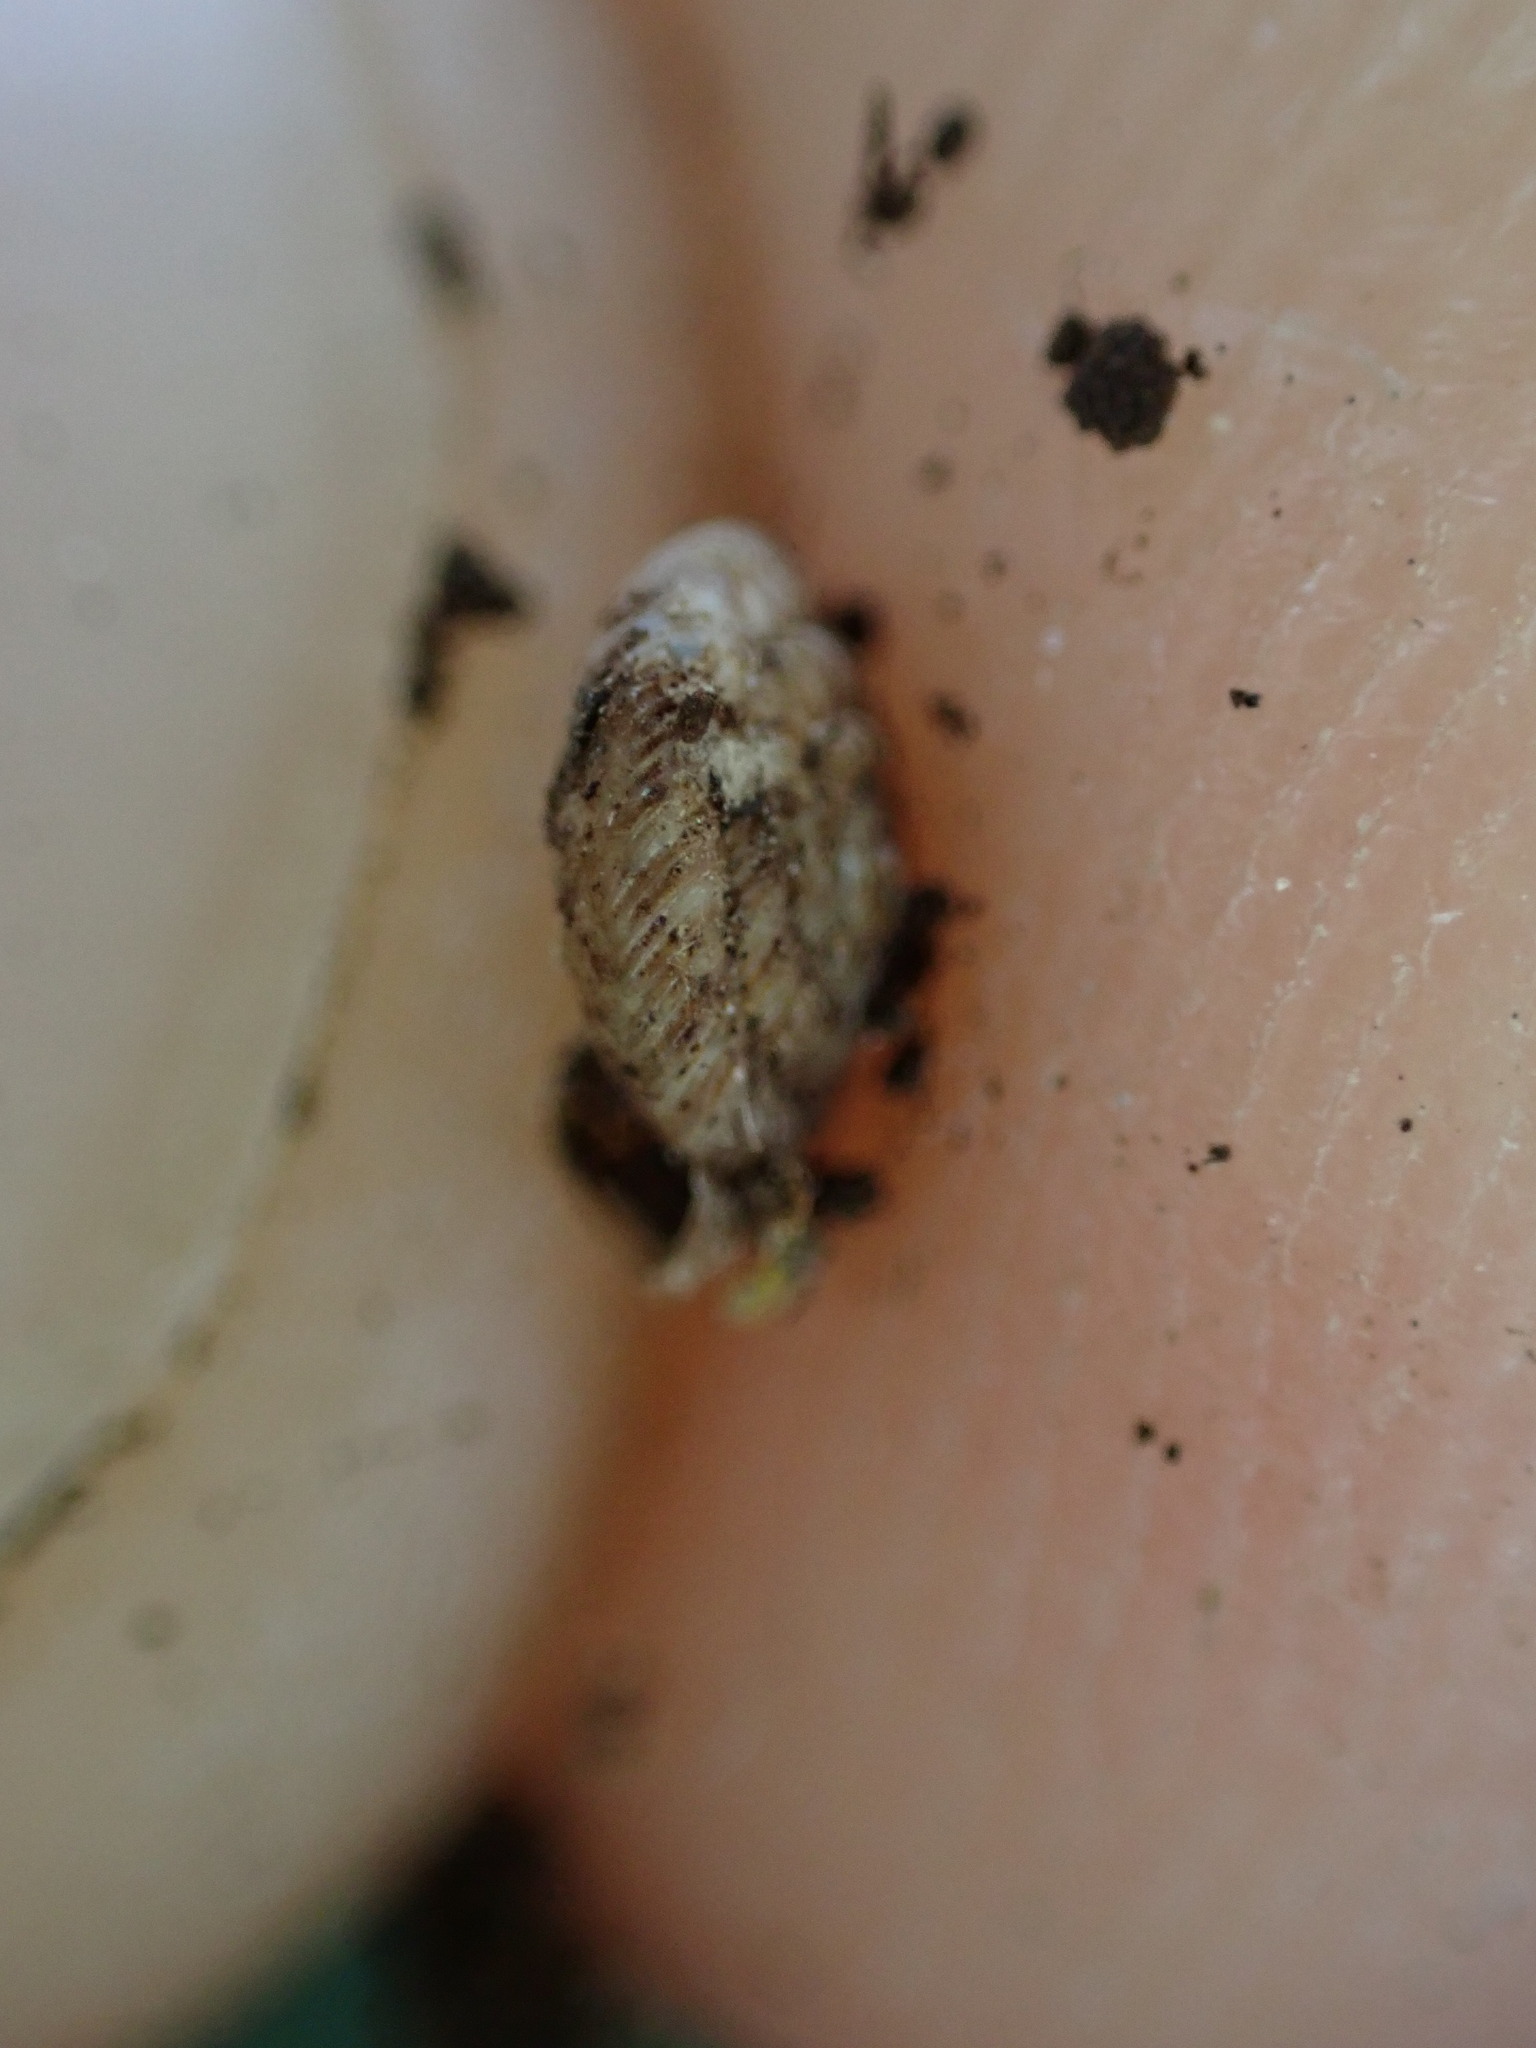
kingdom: Animalia
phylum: Mollusca
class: Gastropoda
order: Stylommatophora
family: Discidae
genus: Discus
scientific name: Discus rotundatus
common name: Rounded snail
